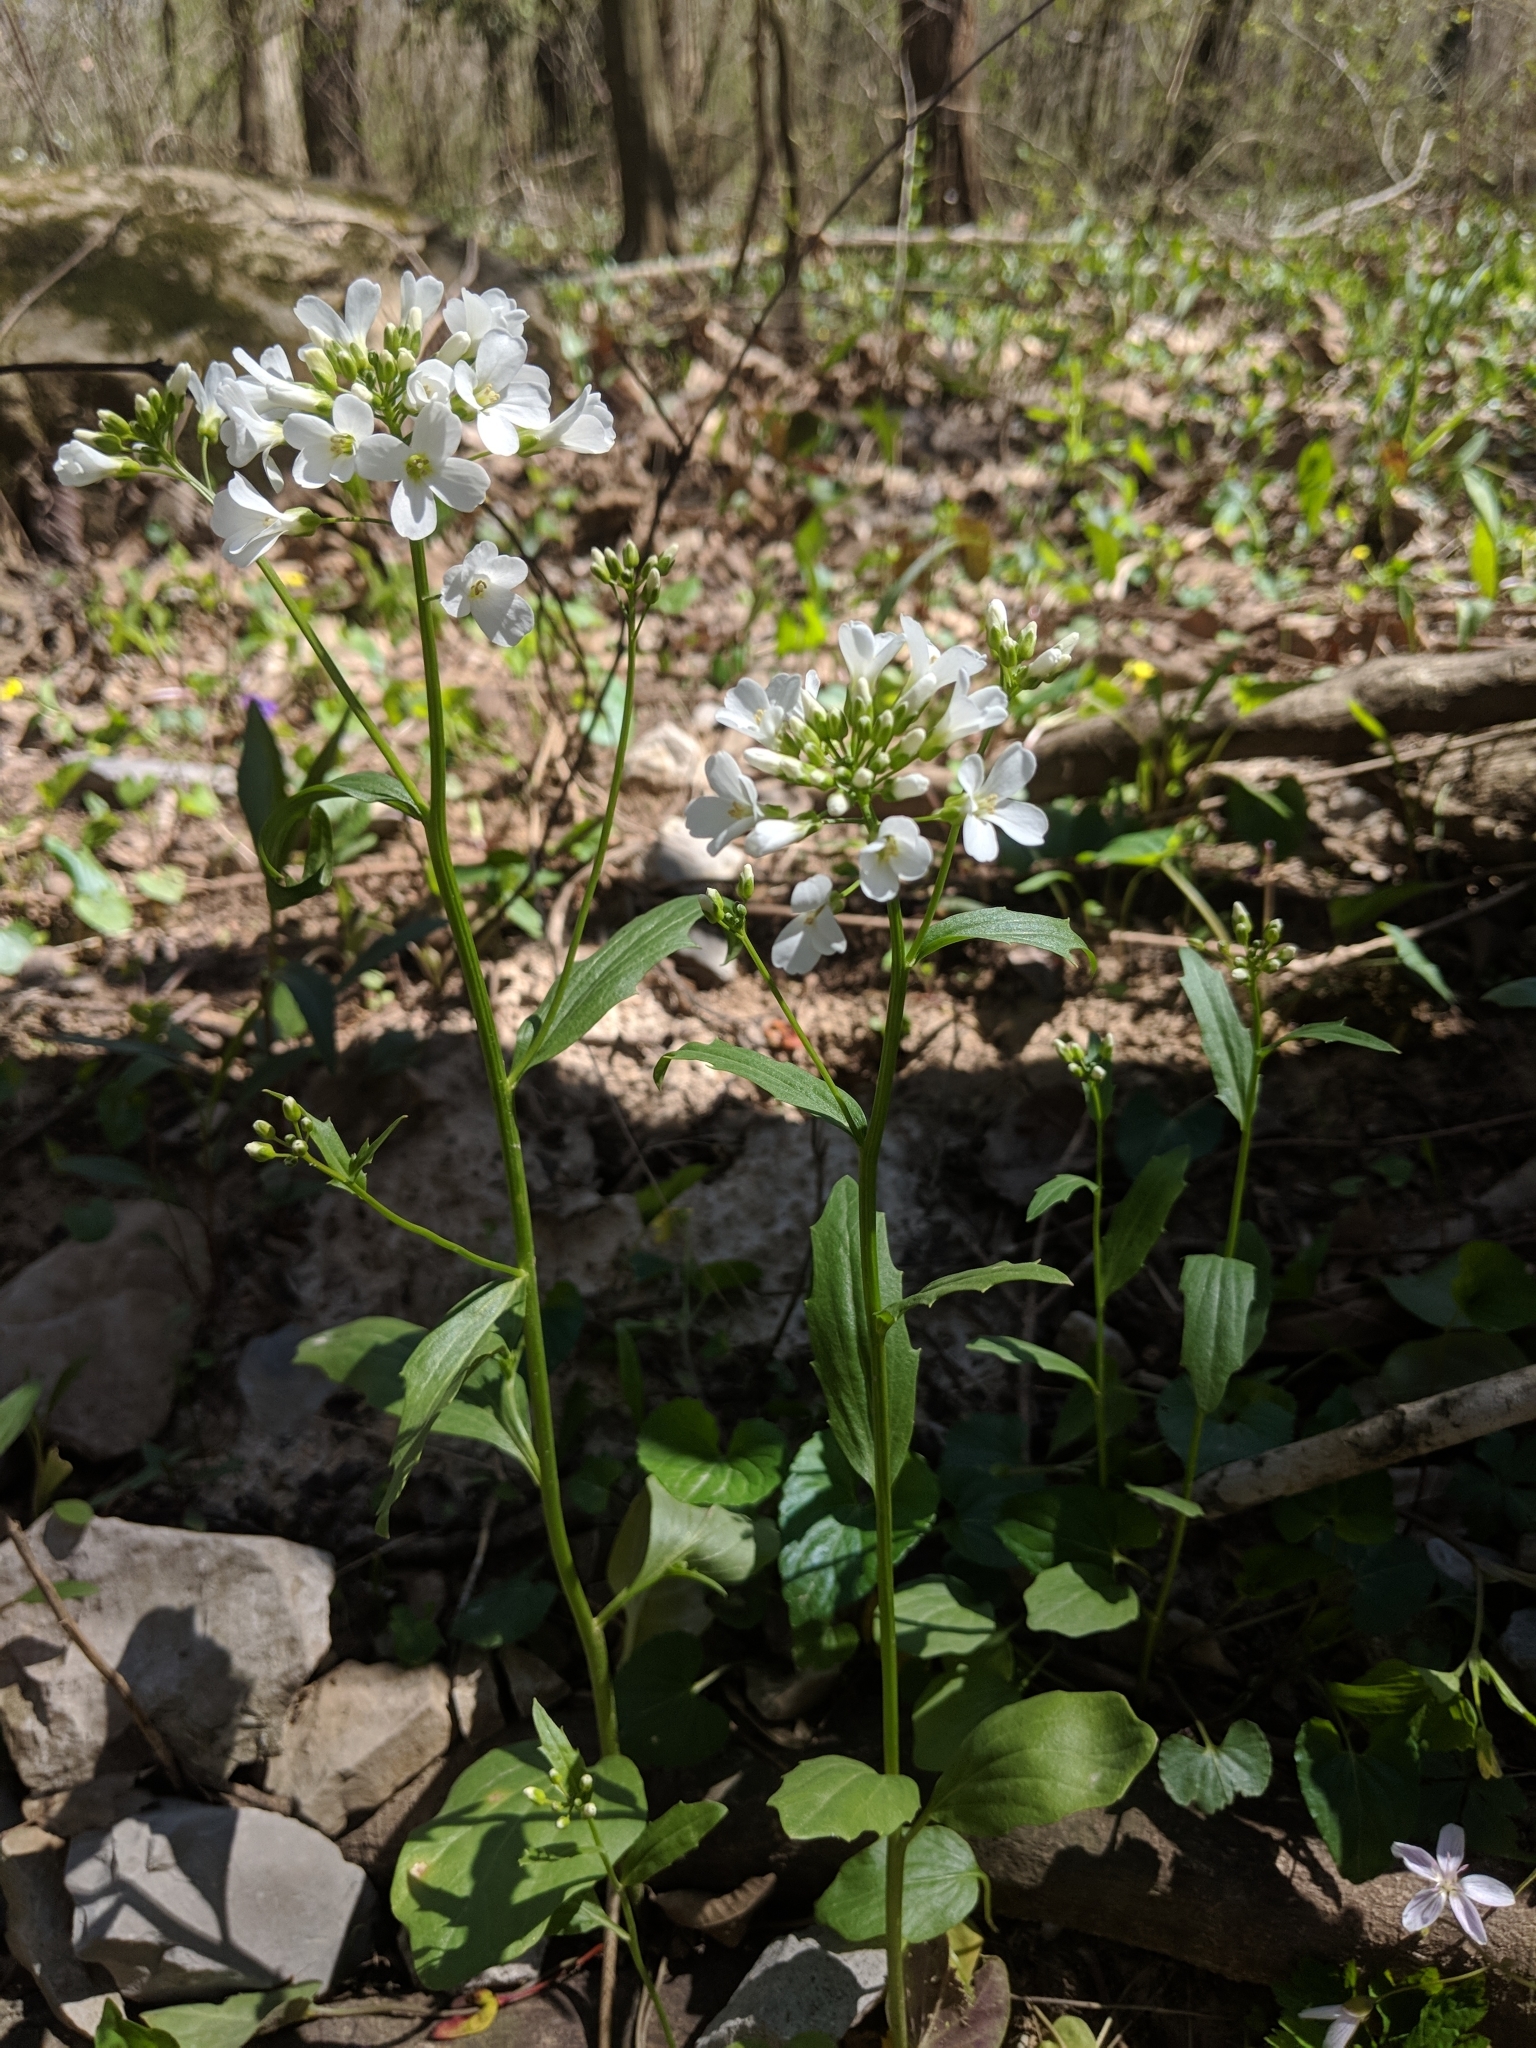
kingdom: Plantae
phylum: Tracheophyta
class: Magnoliopsida
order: Brassicales
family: Brassicaceae
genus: Cardamine
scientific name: Cardamine bulbosa
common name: Spring cress
